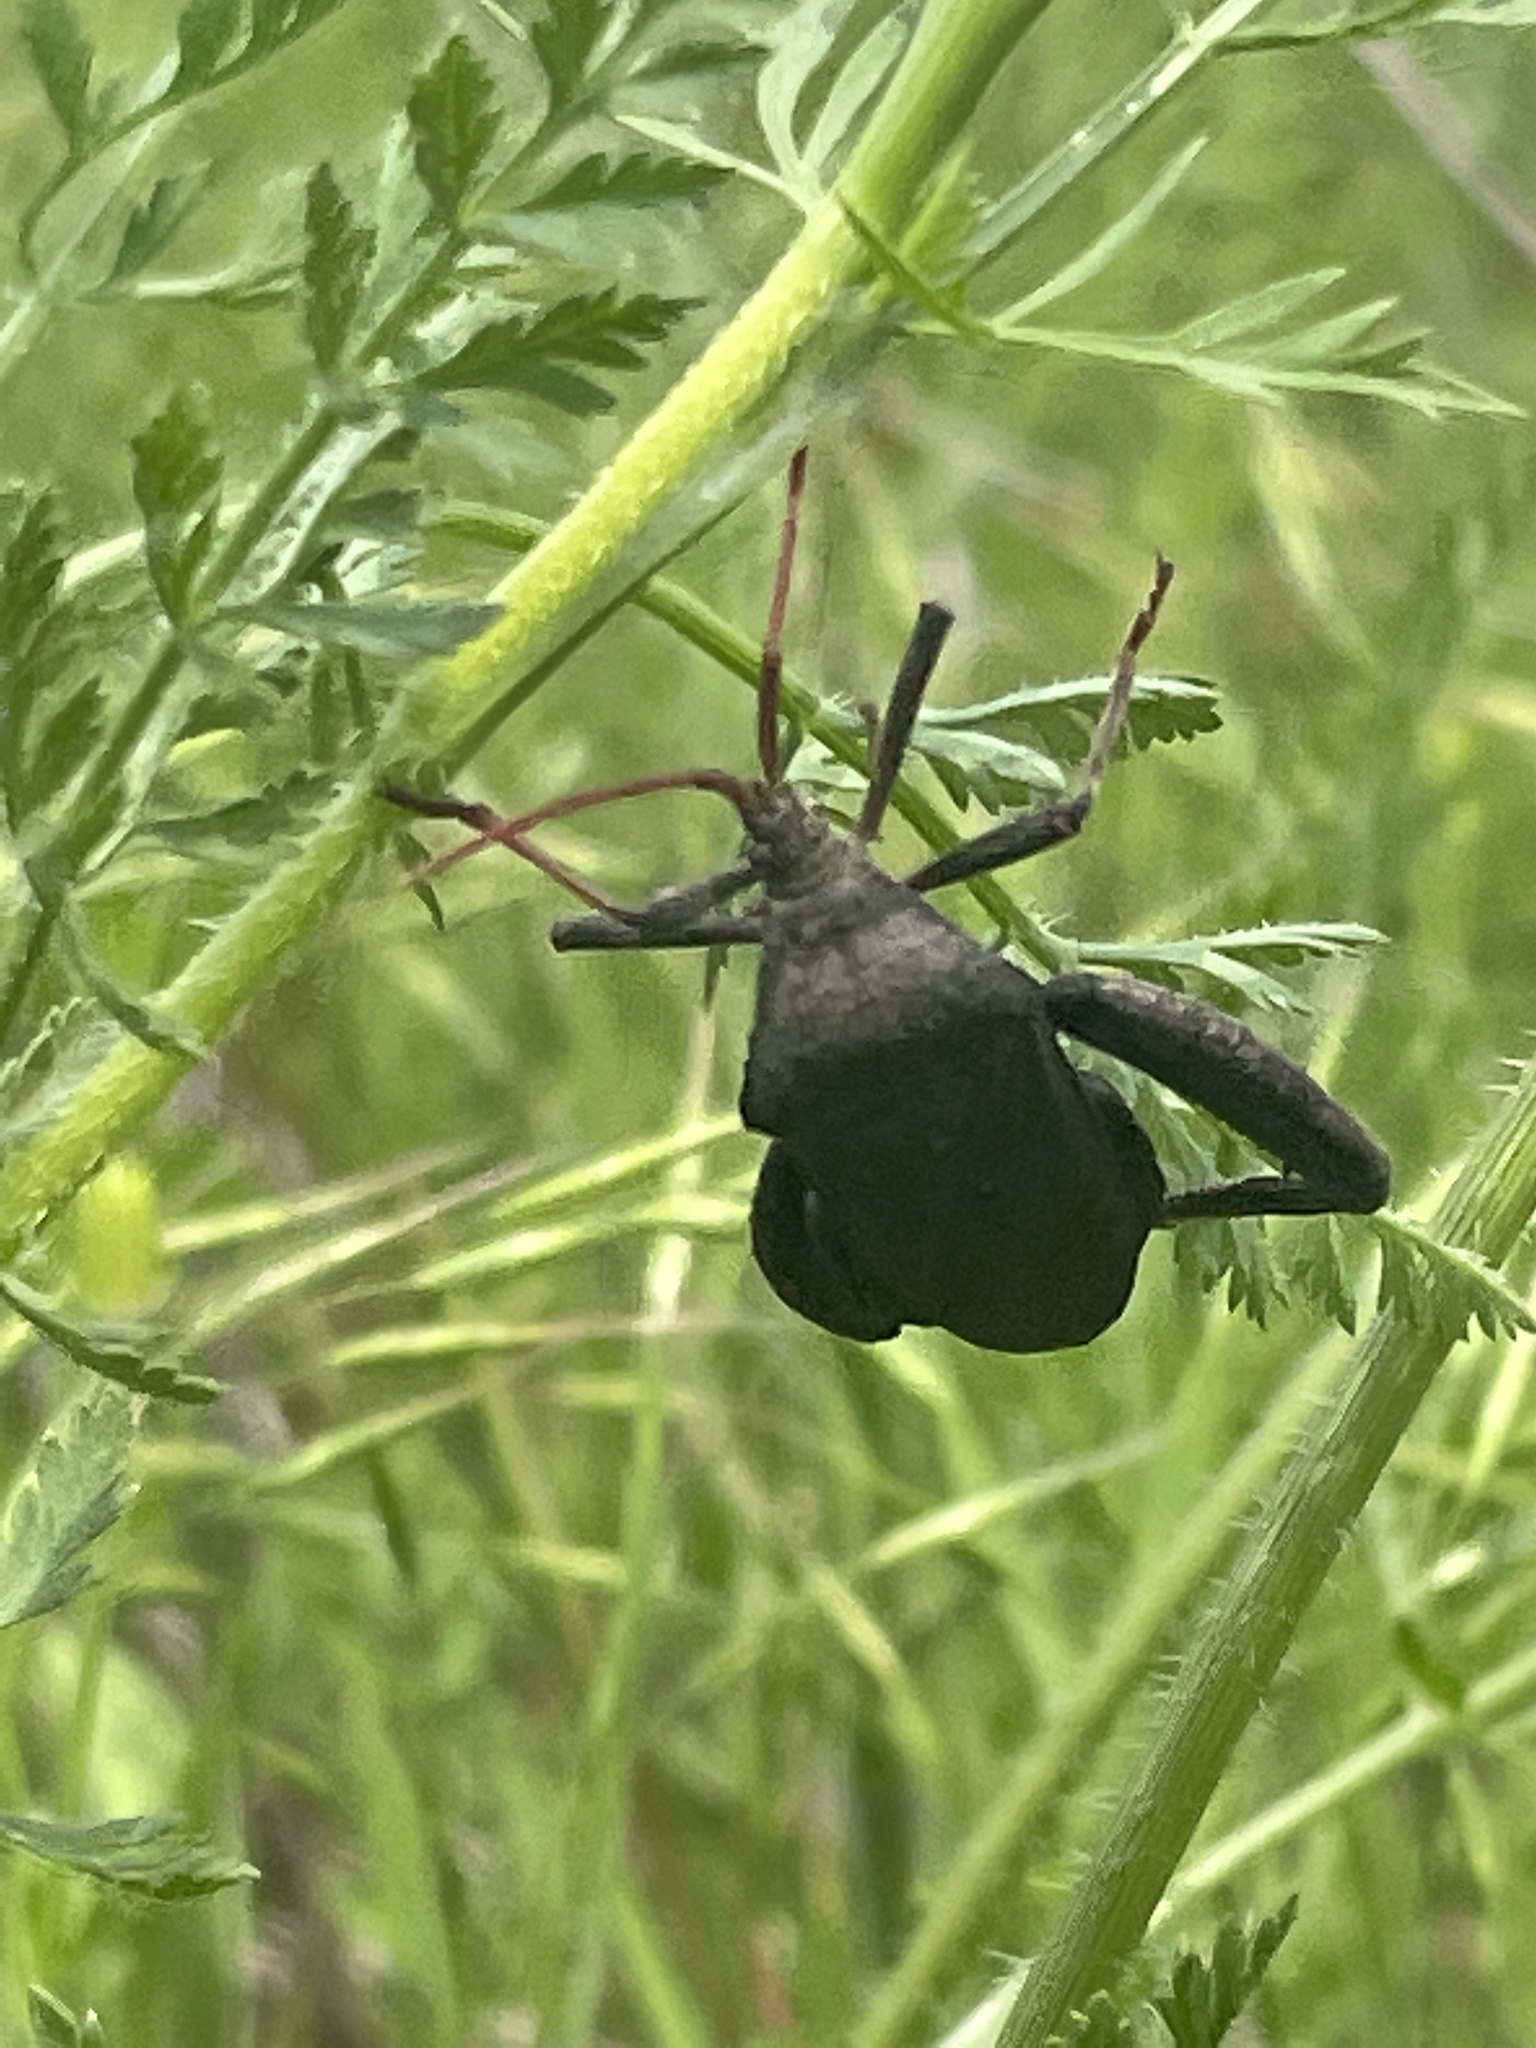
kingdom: Animalia
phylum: Arthropoda
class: Insecta
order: Hemiptera
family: Coreidae
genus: Acanthocephala
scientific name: Acanthocephala femorata
